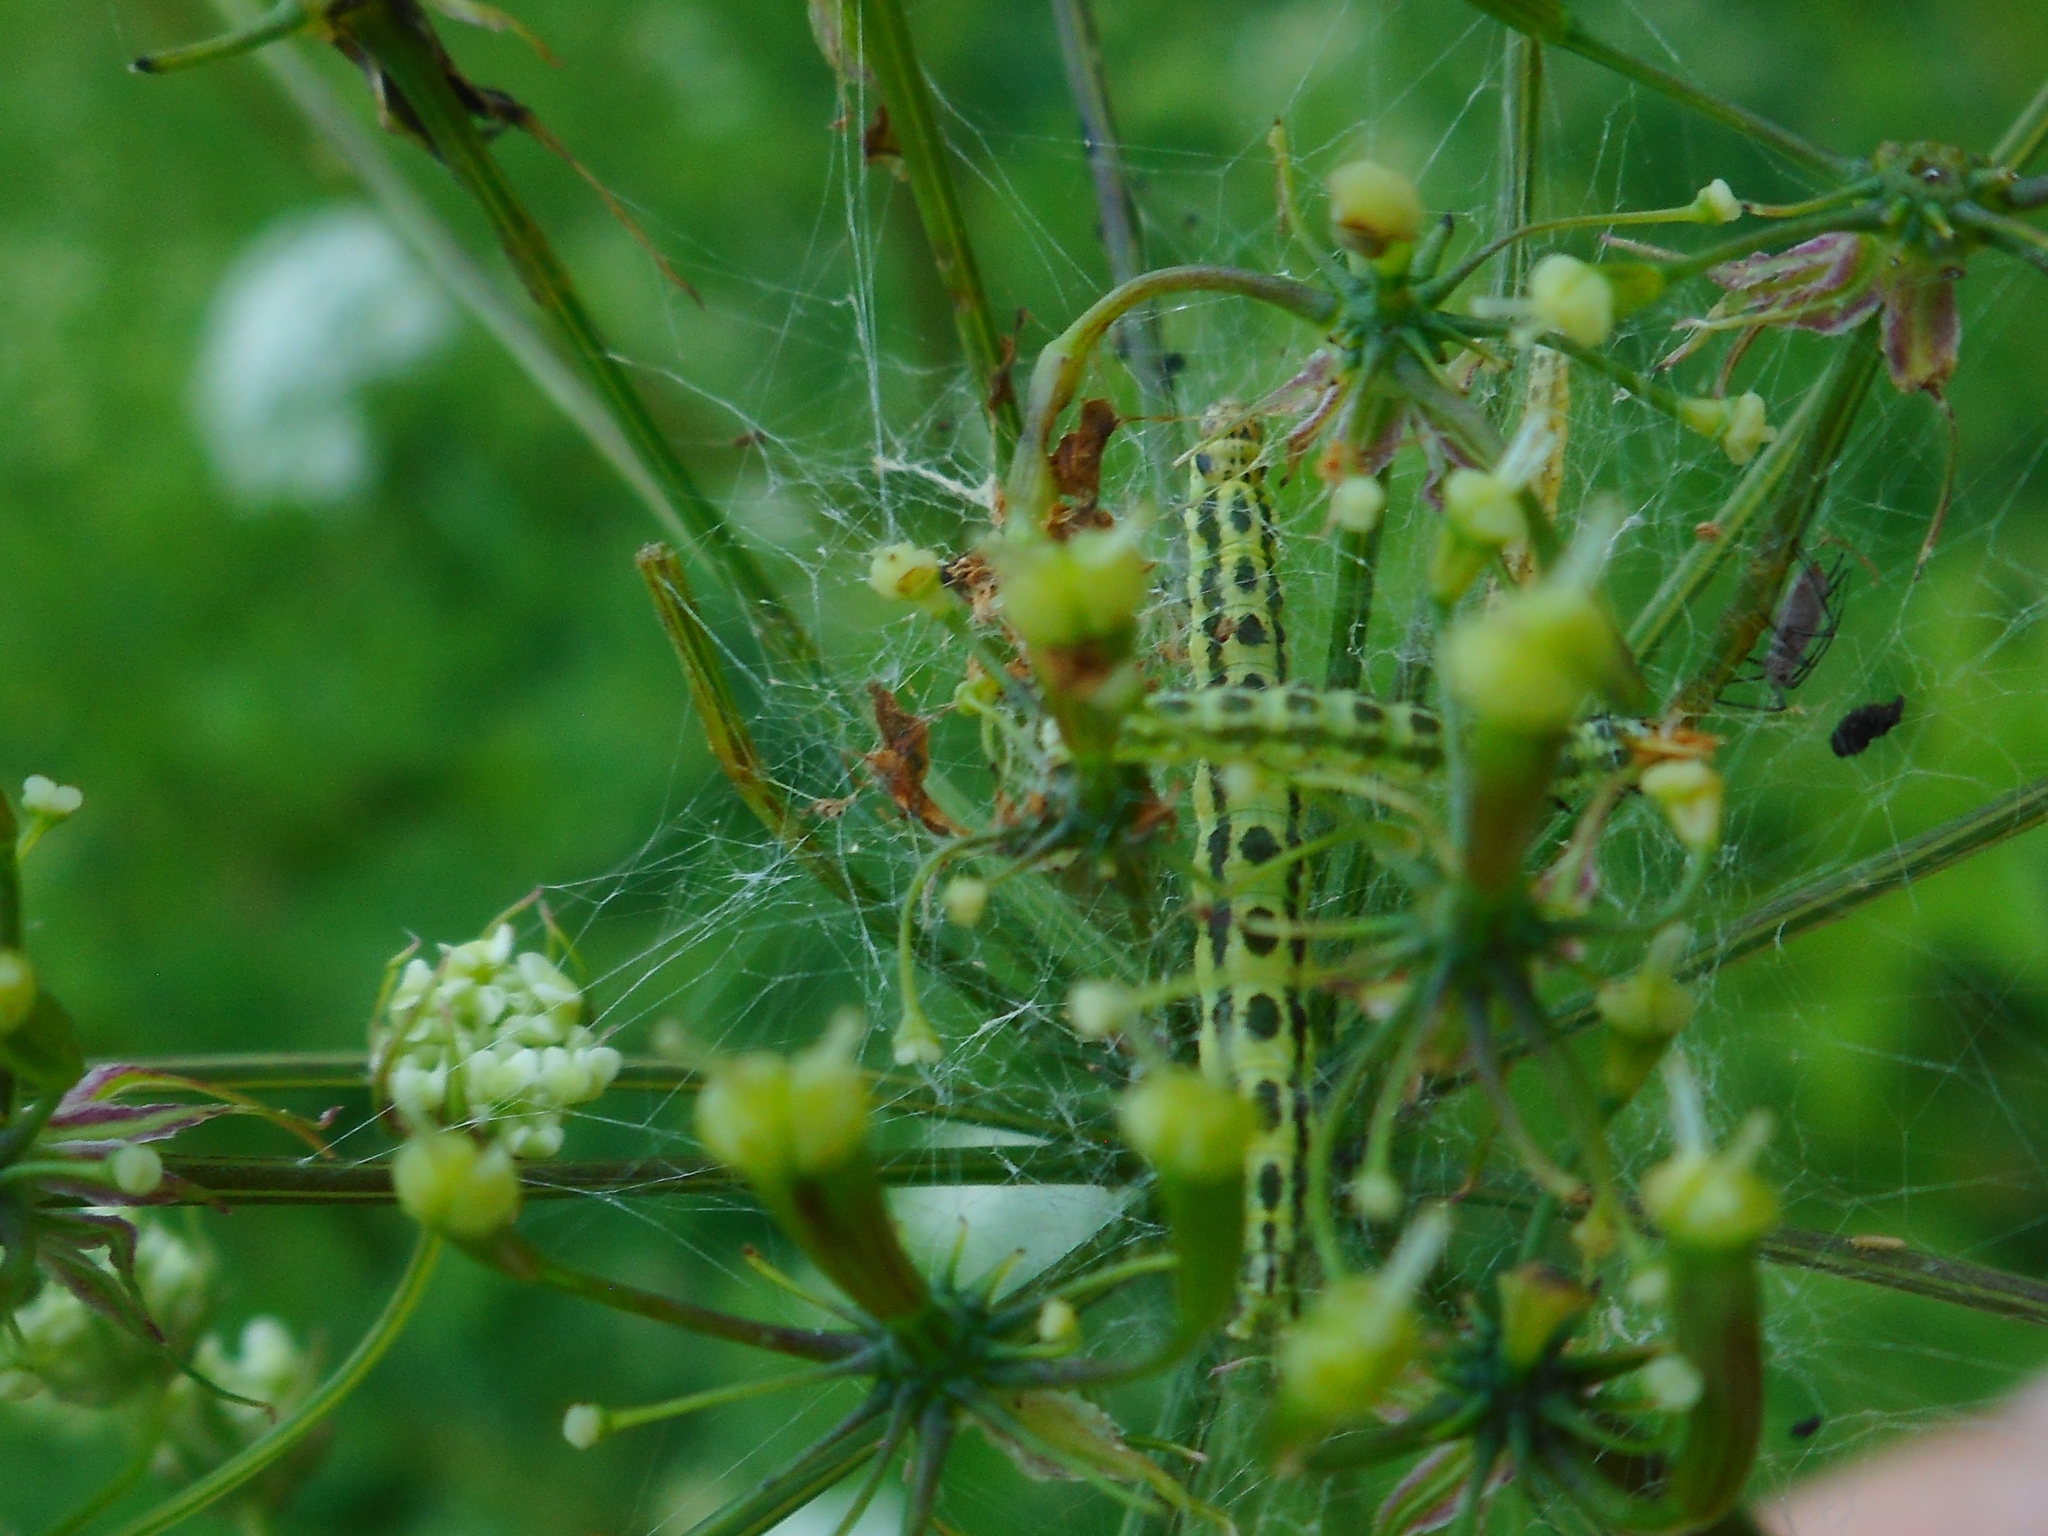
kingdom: Animalia
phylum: Arthropoda
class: Insecta
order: Lepidoptera
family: Depressariidae
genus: Depressaria
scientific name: Depressaria chaerophylli
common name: Streaked flat-body
